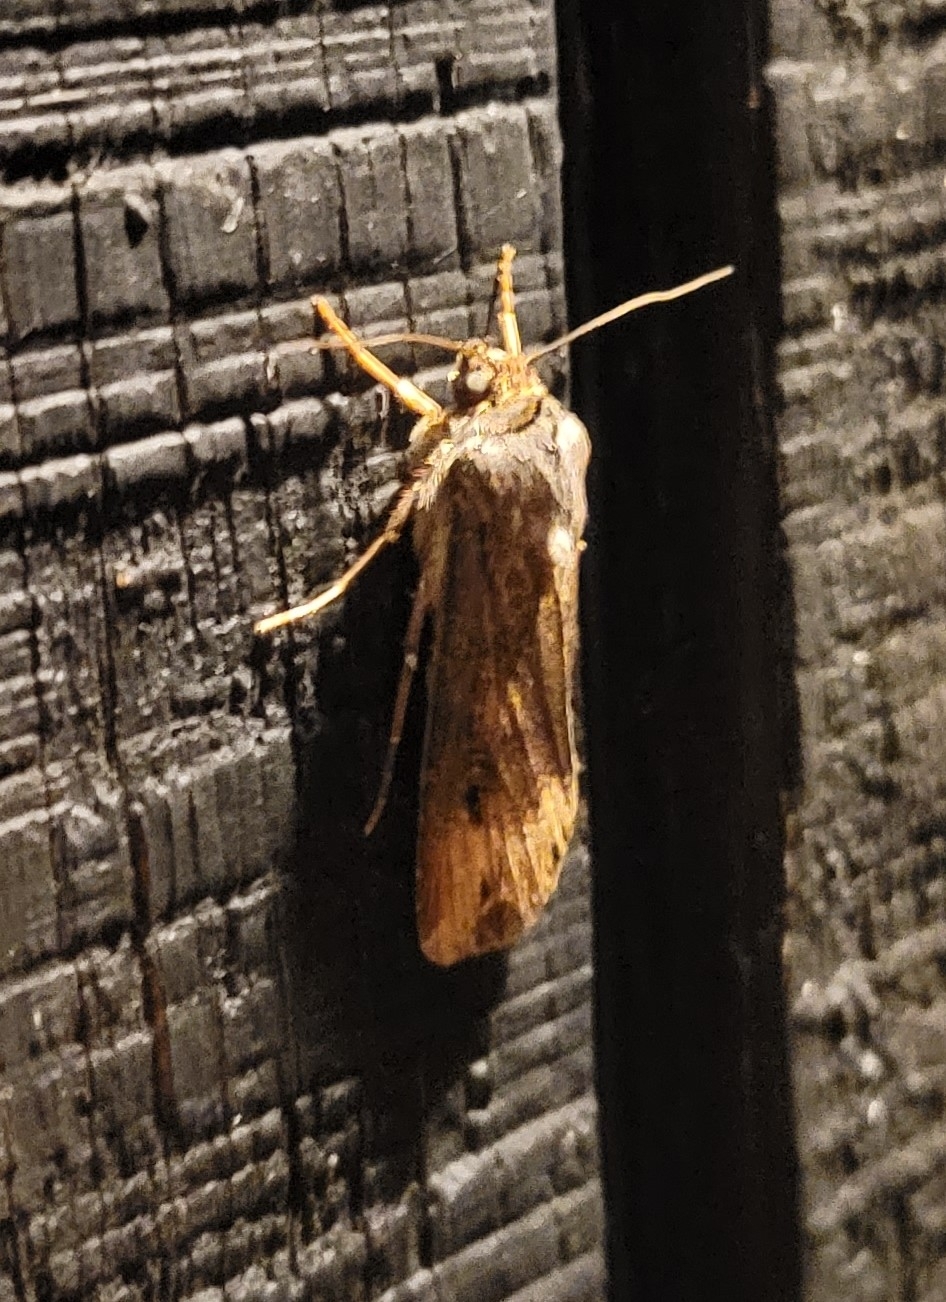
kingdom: Animalia
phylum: Arthropoda
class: Insecta
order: Lepidoptera
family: Noctuidae
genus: Agrotis
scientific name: Agrotis ipsilon
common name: Dark sword-grass
